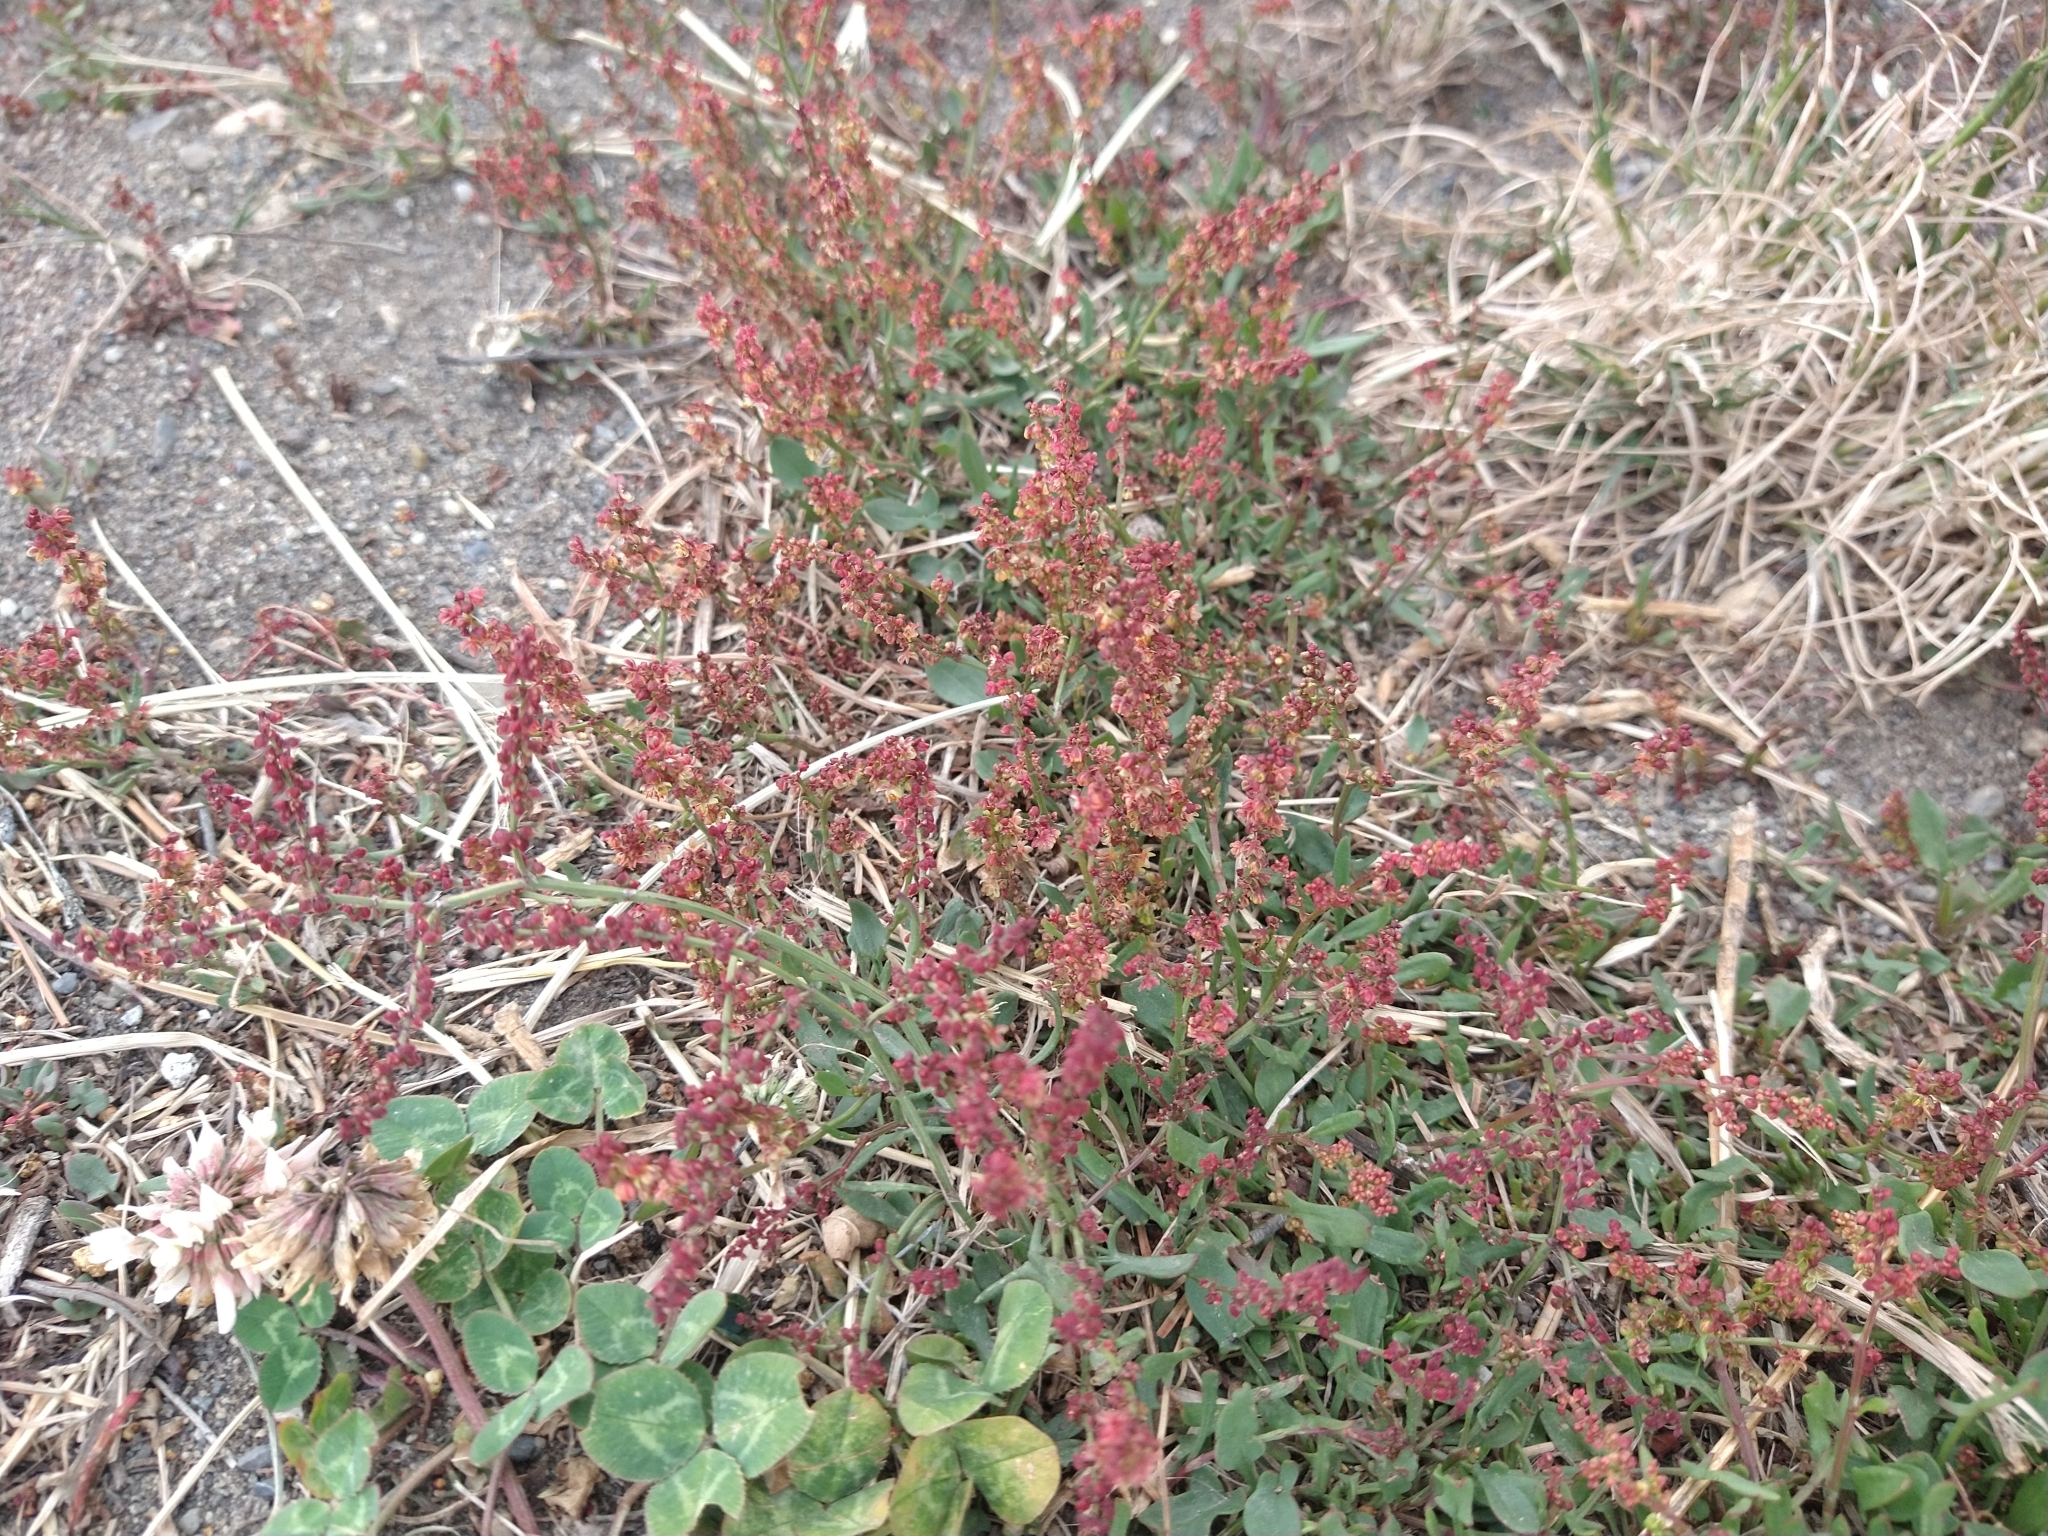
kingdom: Plantae
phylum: Tracheophyta
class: Magnoliopsida
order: Caryophyllales
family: Polygonaceae
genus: Rumex
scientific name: Rumex acetosella
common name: Common sheep sorrel
